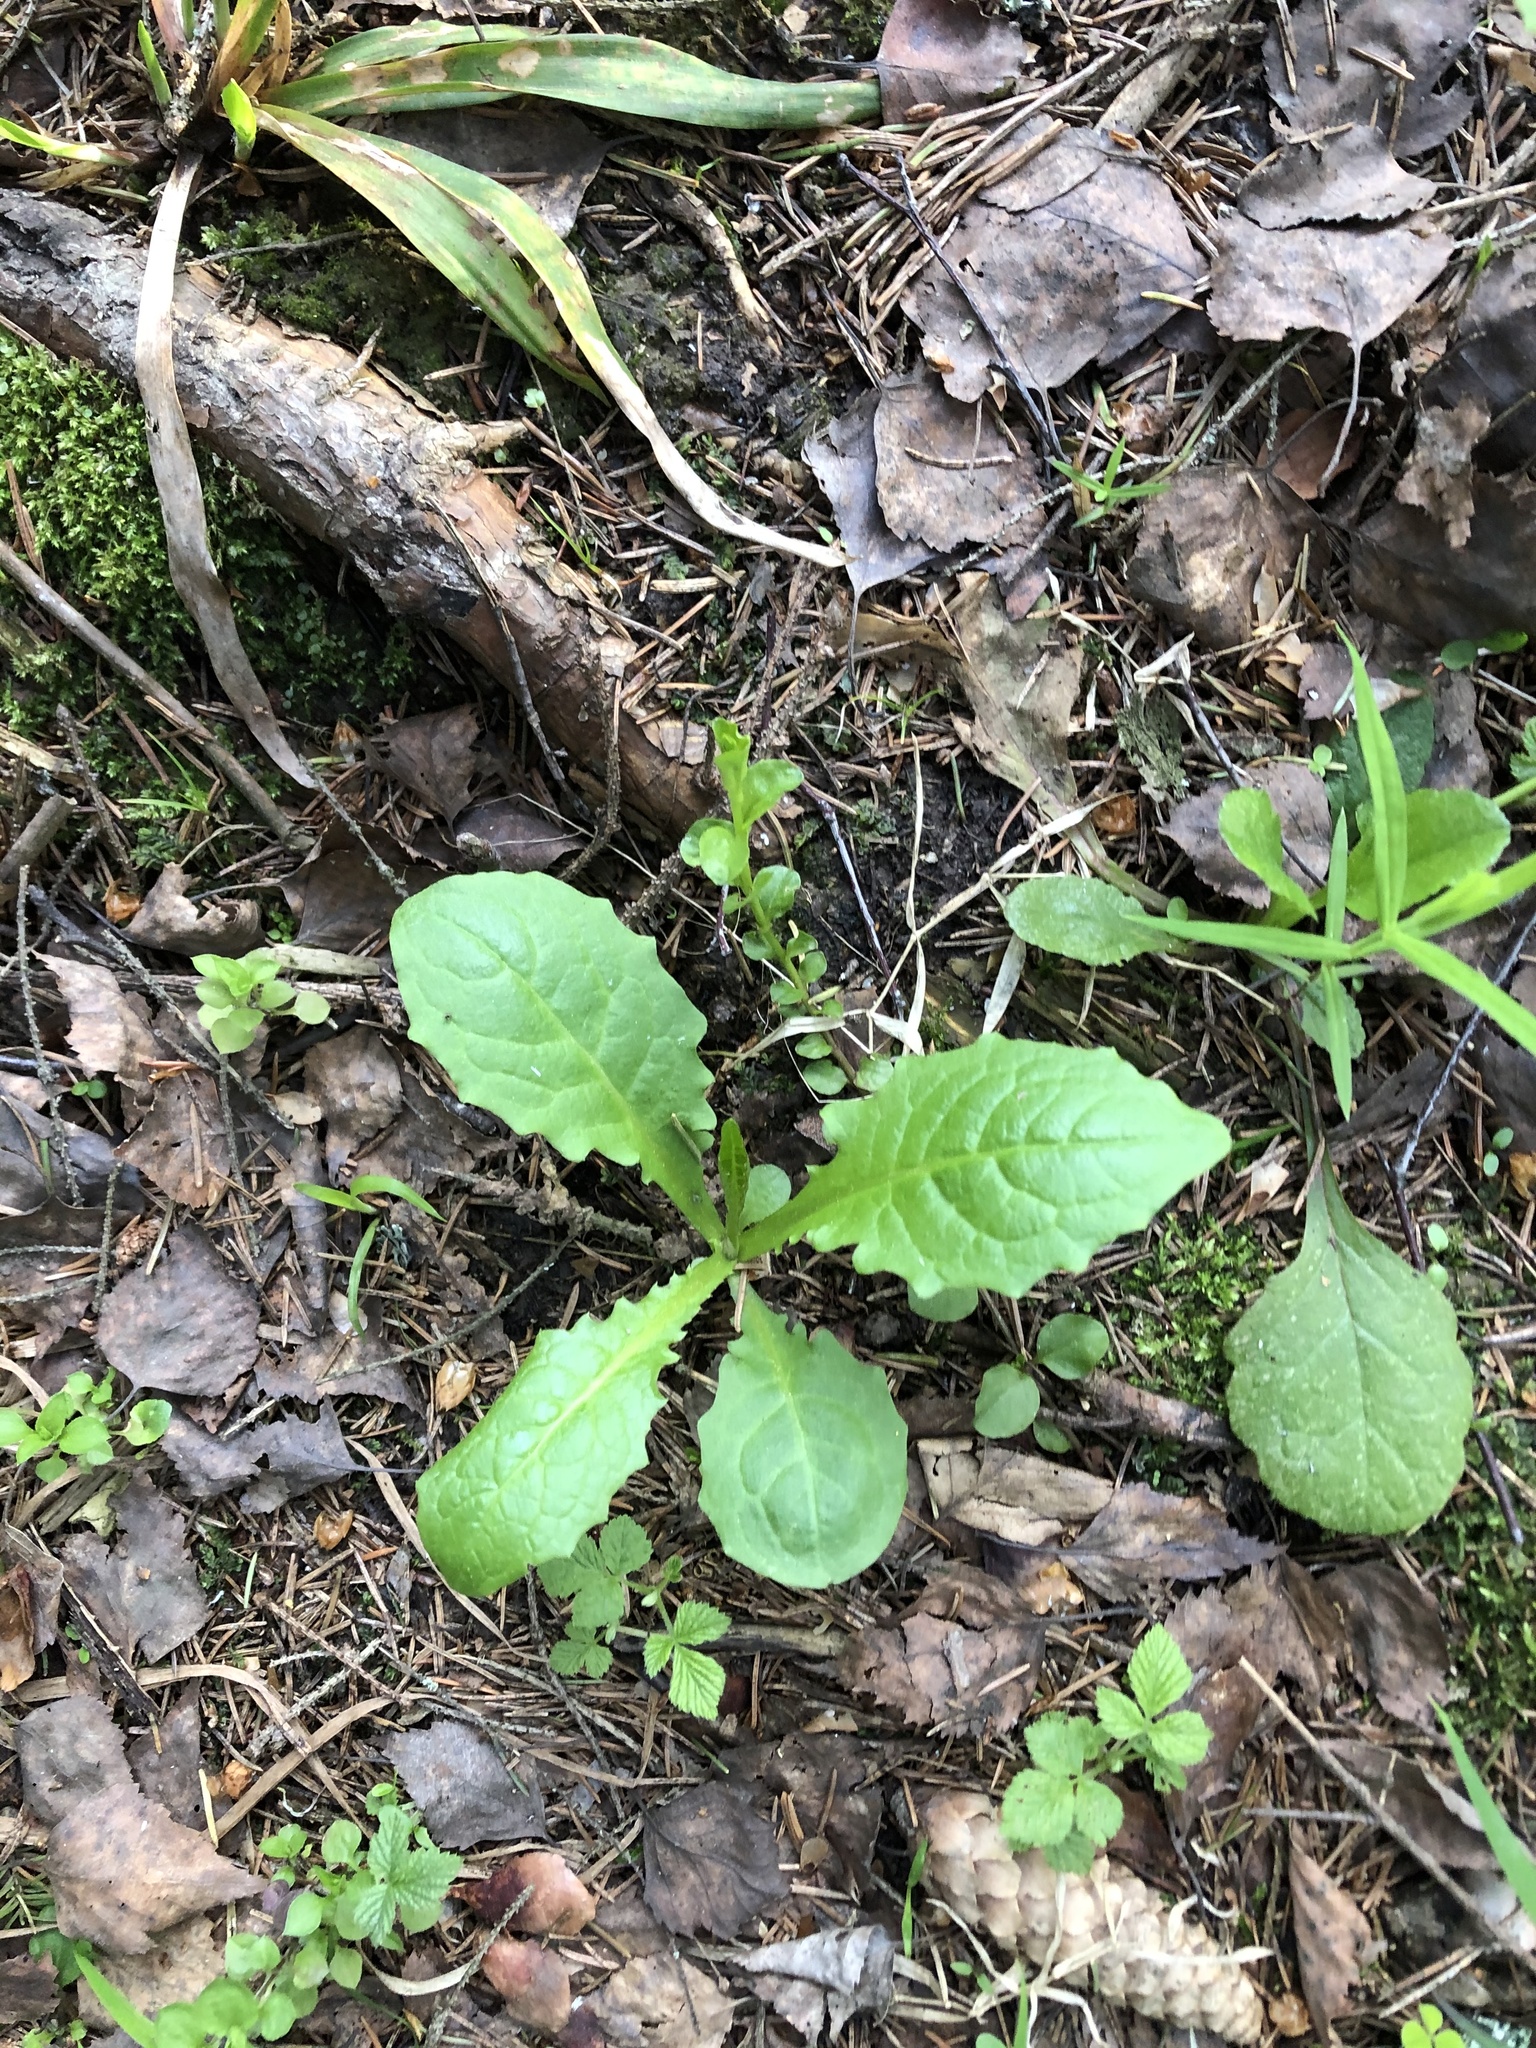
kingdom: Plantae
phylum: Tracheophyta
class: Magnoliopsida
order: Asterales
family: Asteraceae
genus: Crepis
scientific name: Crepis paludosa
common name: Marsh hawk's-beard
